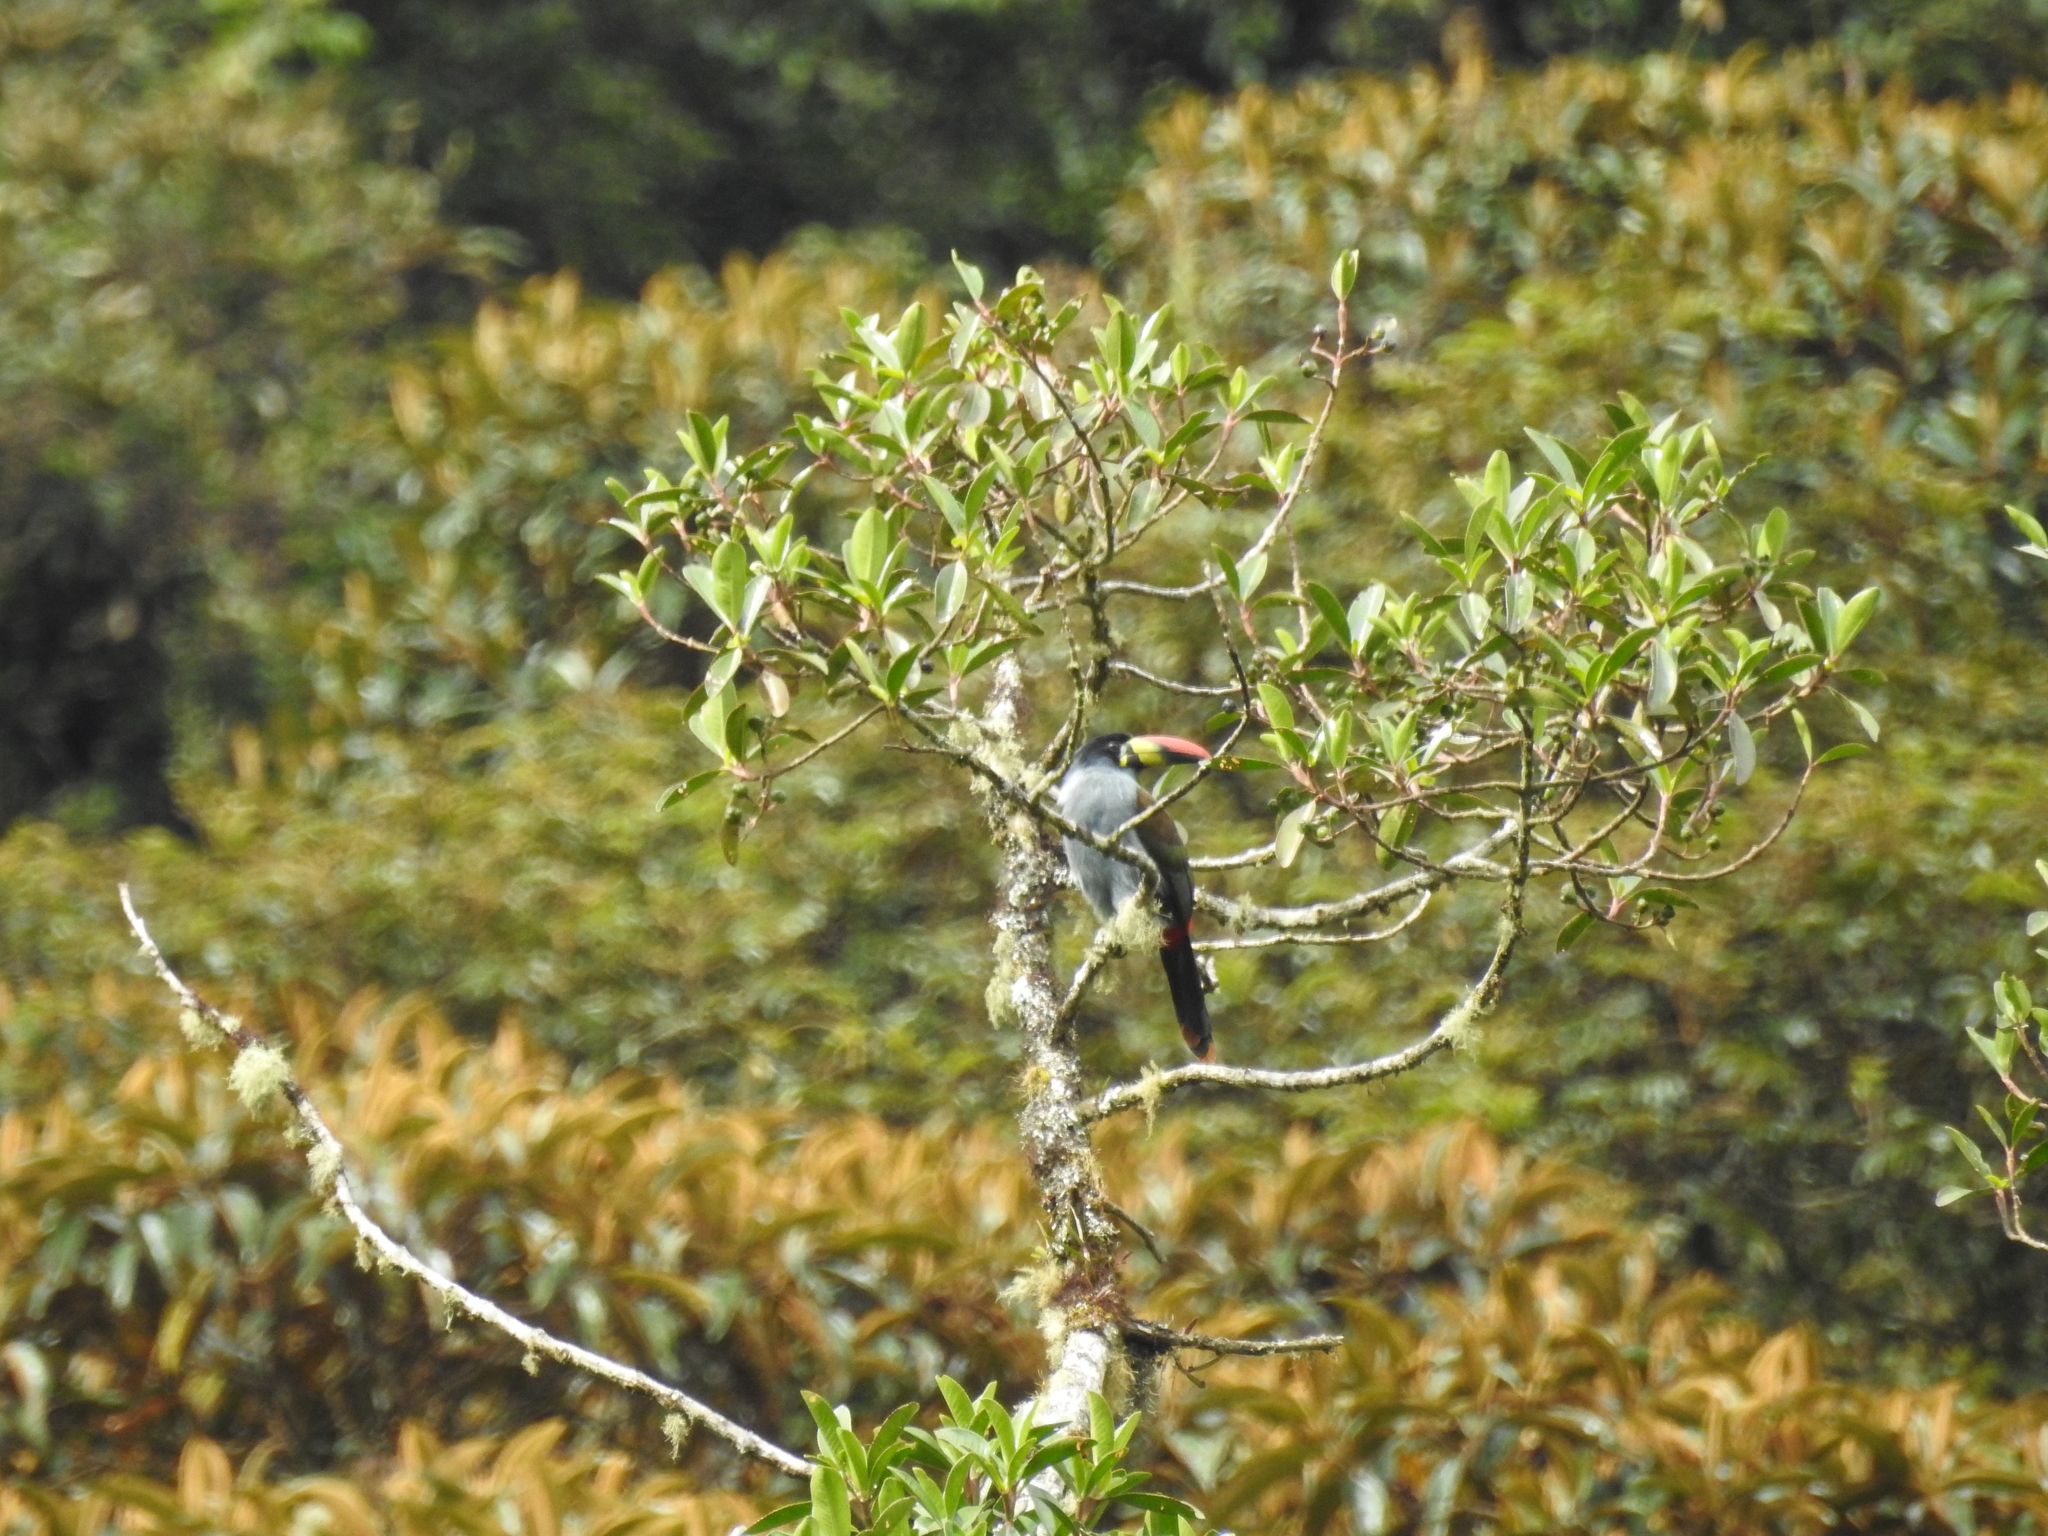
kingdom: Animalia
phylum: Chordata
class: Aves
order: Piciformes
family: Ramphastidae
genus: Andigena
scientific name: Andigena hypoglauca
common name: Grey-breasted mountain toucan
